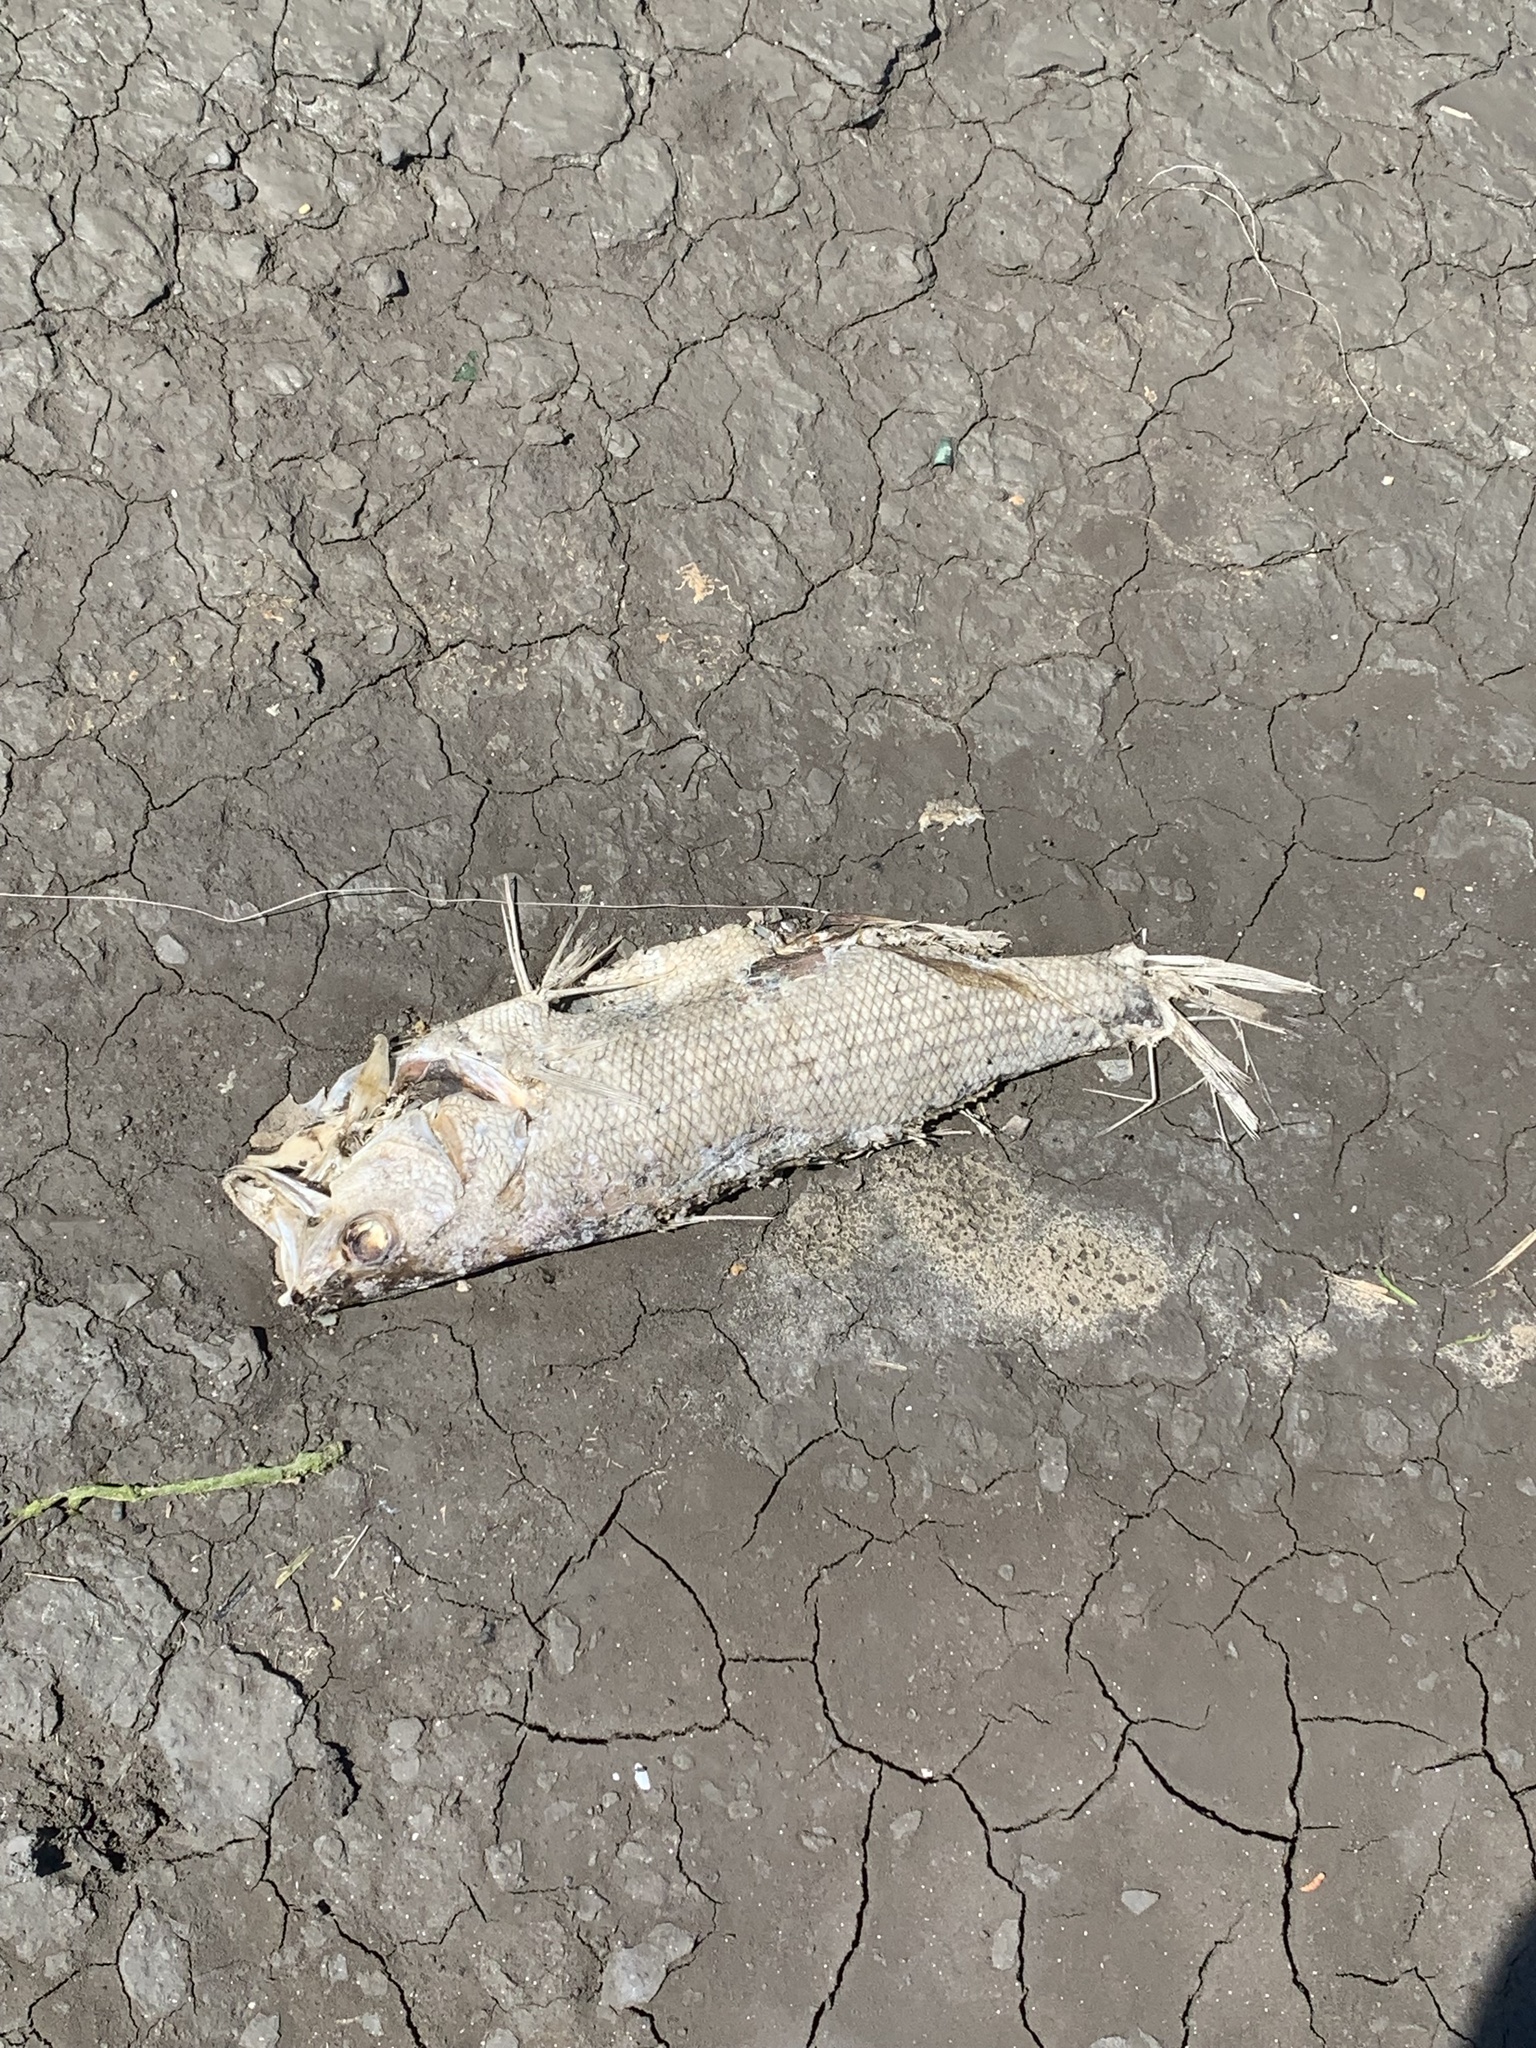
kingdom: Animalia
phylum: Chordata
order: Perciformes
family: Moronidae
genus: Morone
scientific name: Morone saxatilis
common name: Striped bass
